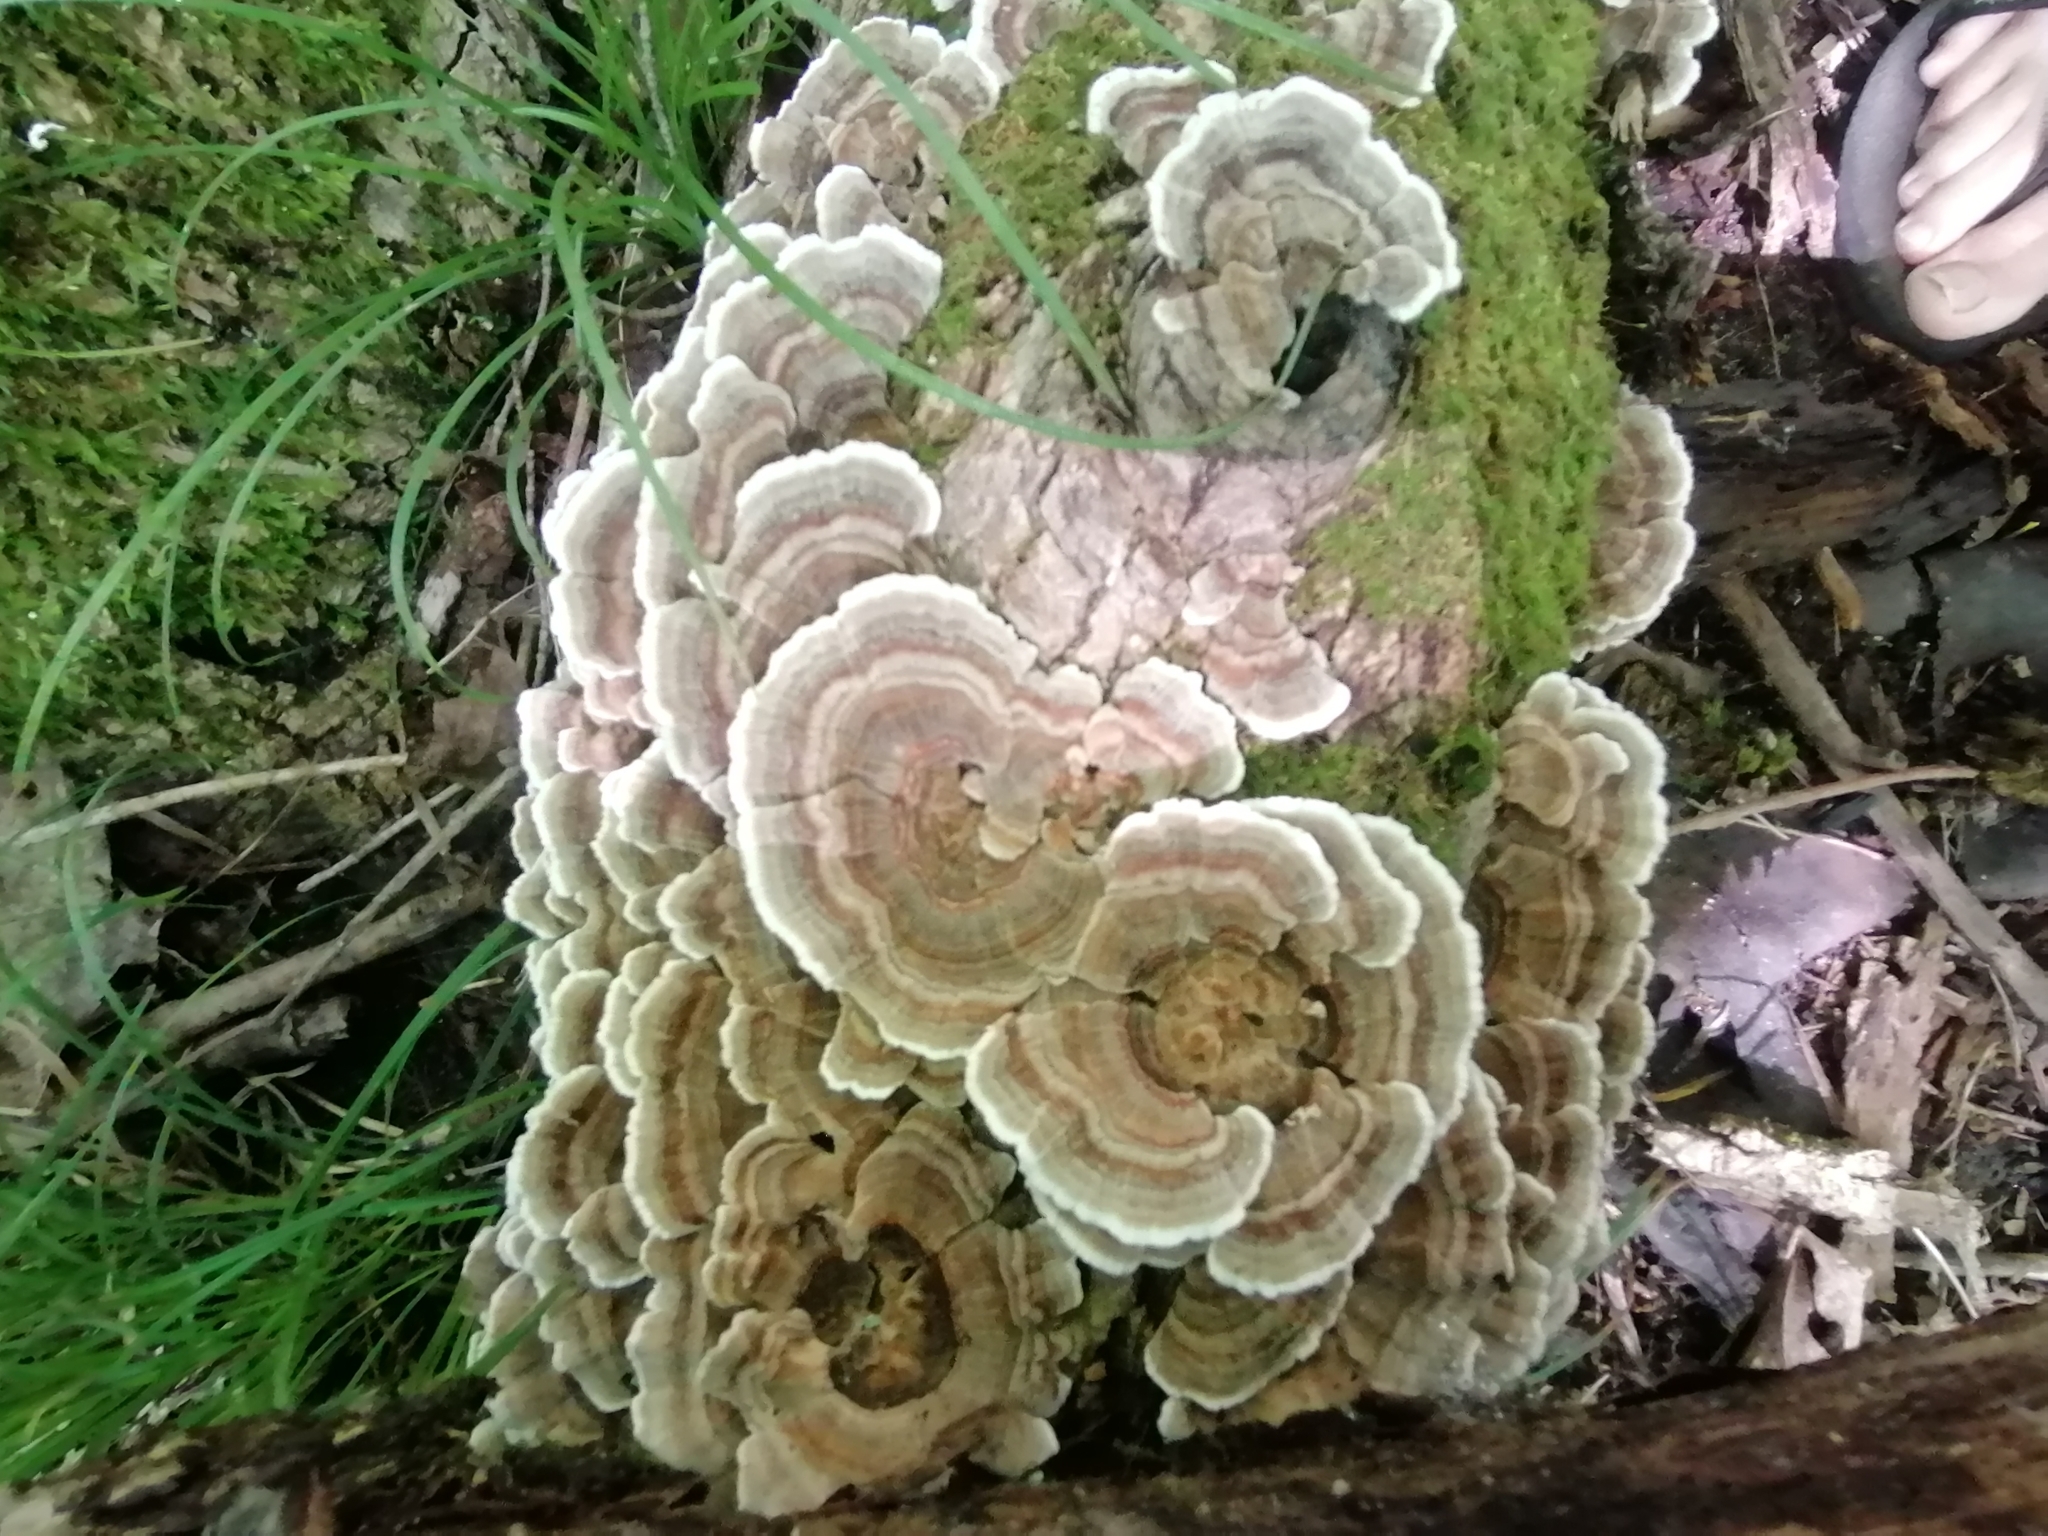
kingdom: Fungi
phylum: Basidiomycota
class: Agaricomycetes
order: Polyporales
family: Polyporaceae
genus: Trametes
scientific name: Trametes versicolor
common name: Turkeytail
